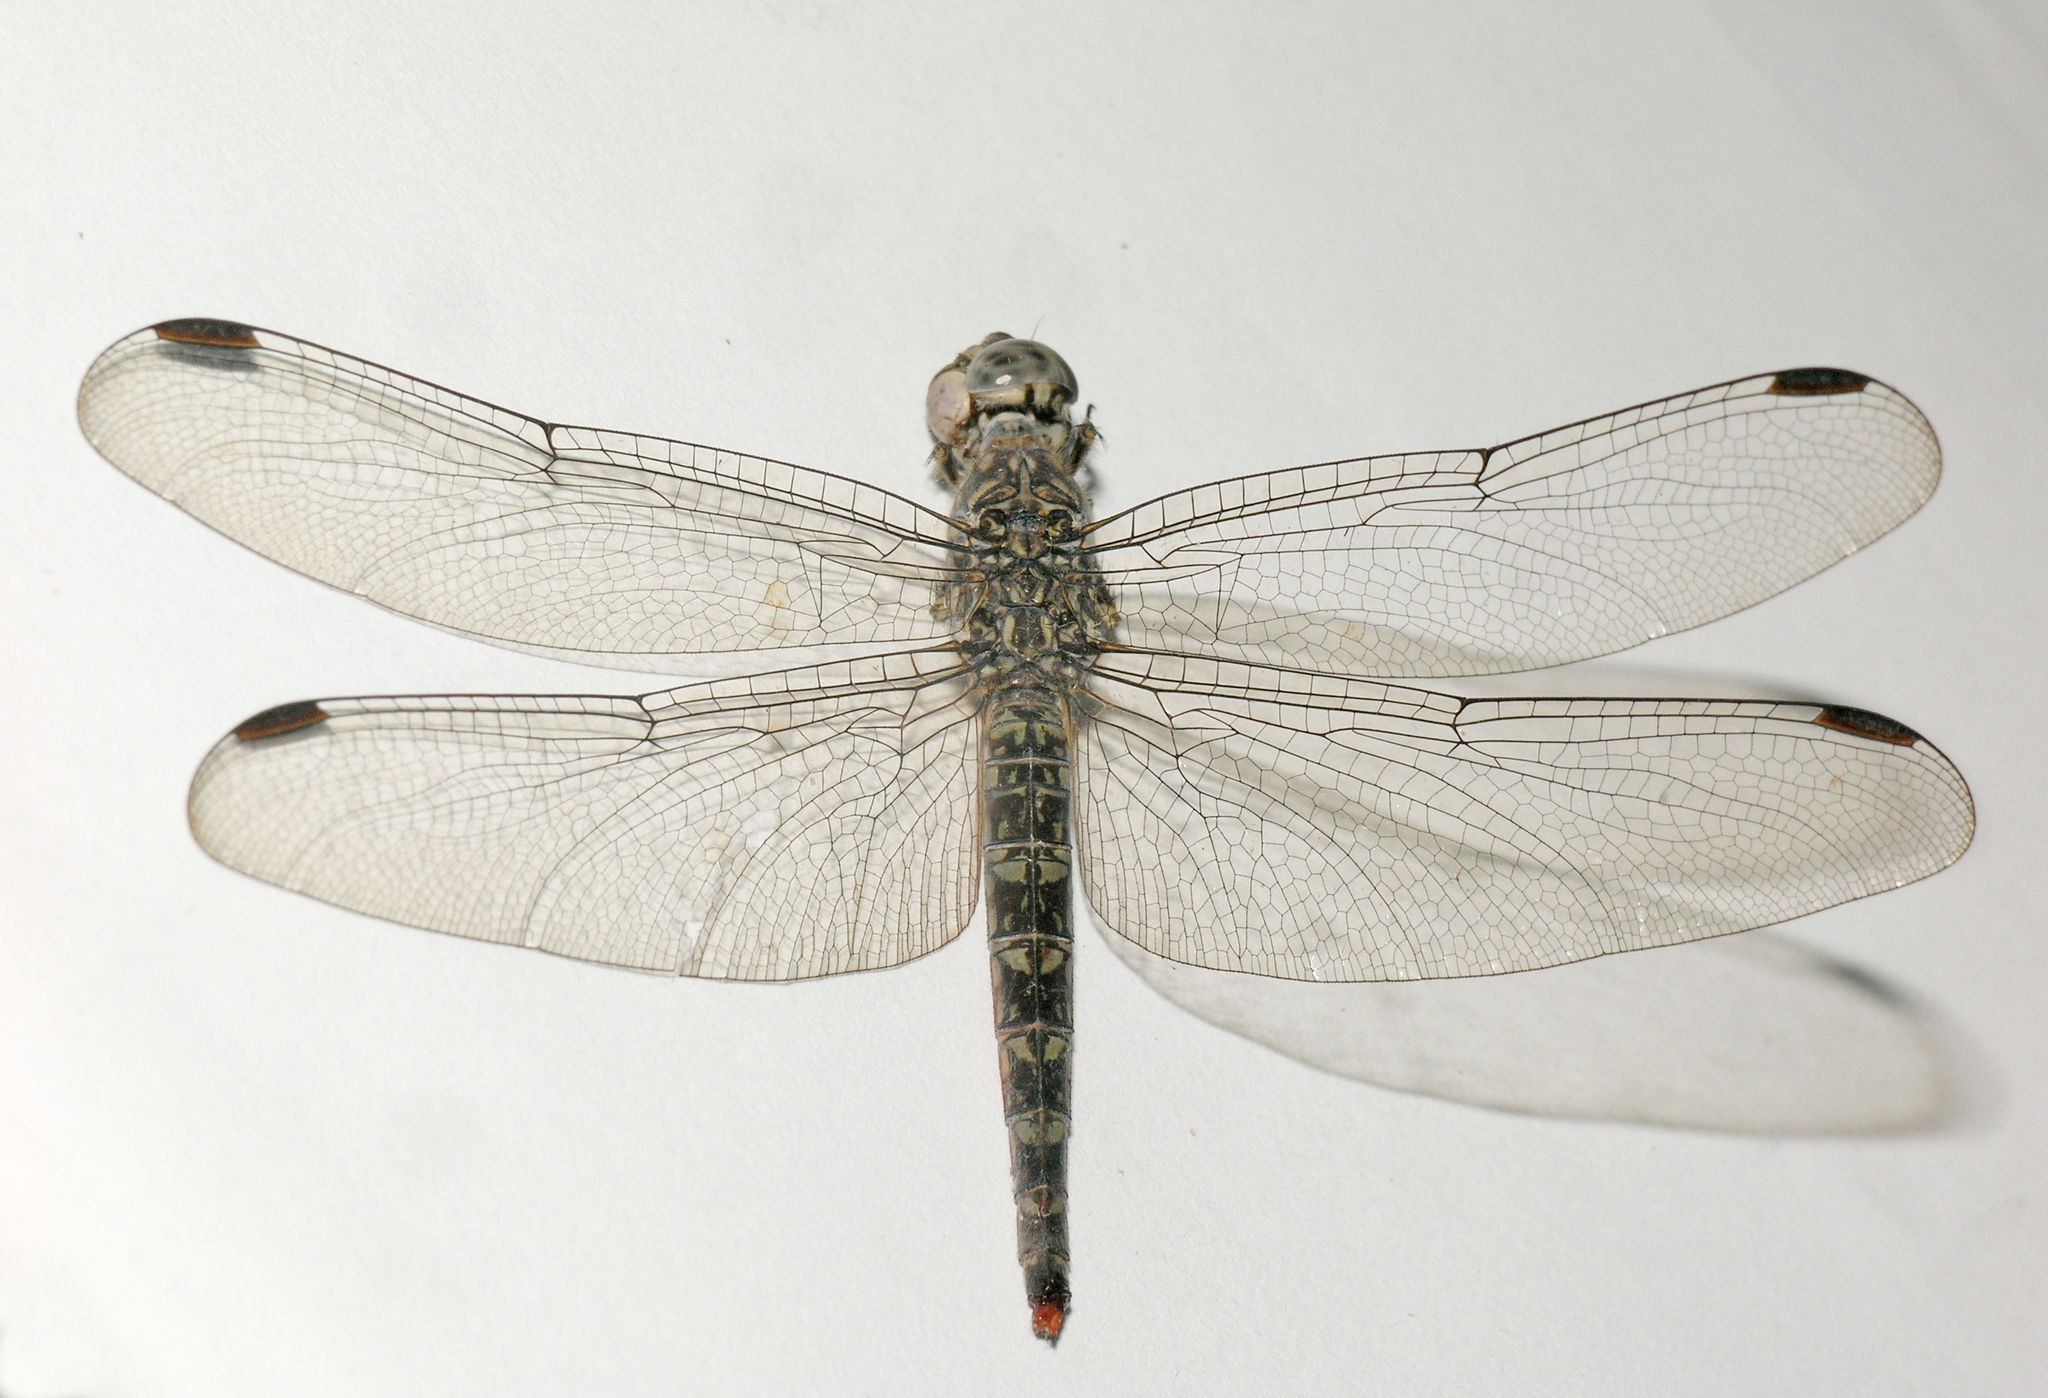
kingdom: Animalia
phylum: Arthropoda
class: Insecta
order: Odonata
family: Libellulidae
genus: Bradinopyga
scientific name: Bradinopyga strachani
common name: Red rock-dweller
